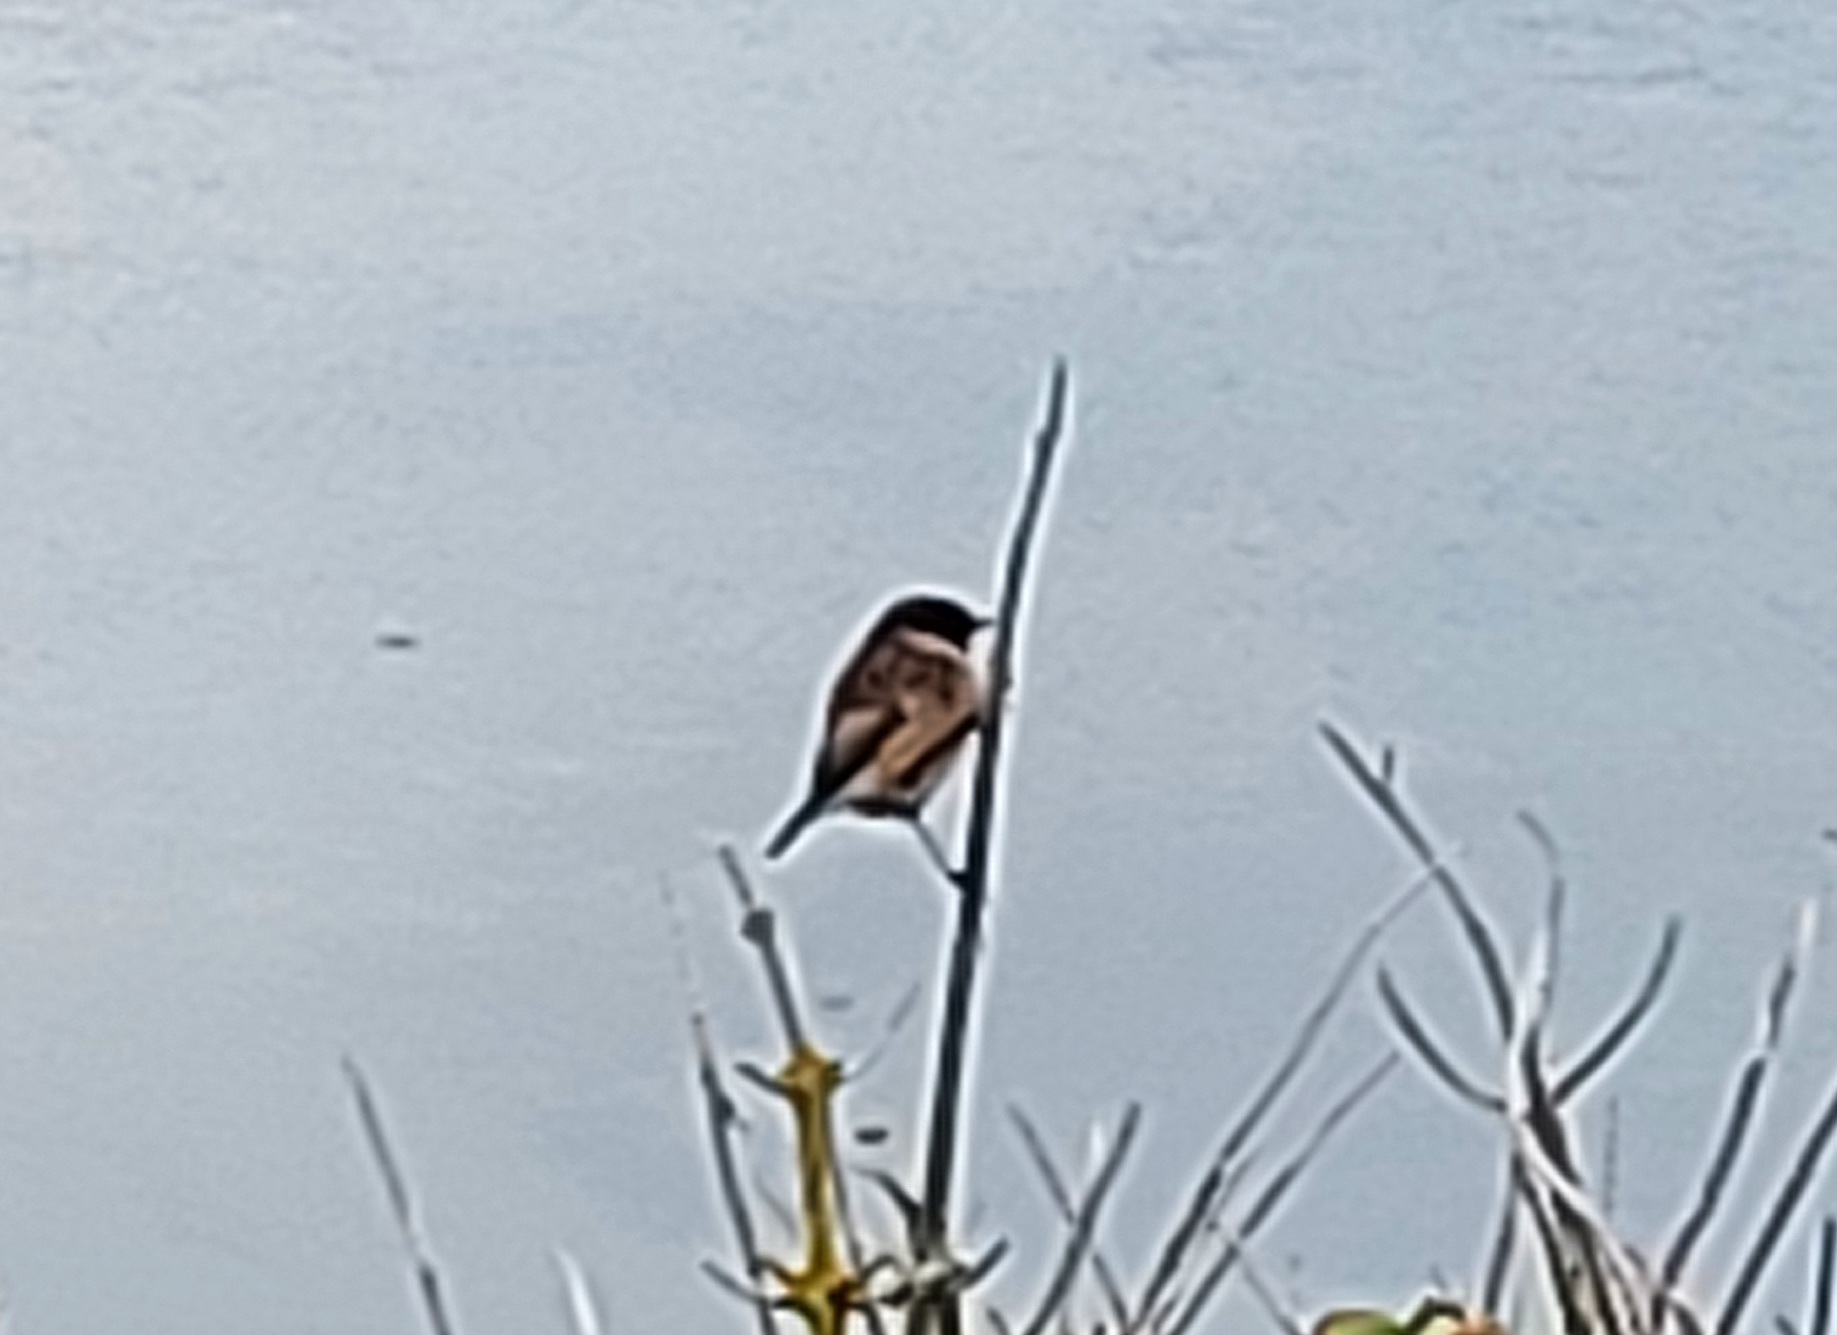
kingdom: Animalia
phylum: Chordata
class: Aves
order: Passeriformes
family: Muscicapidae
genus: Saxicola
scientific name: Saxicola rubicola
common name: European stonechat
